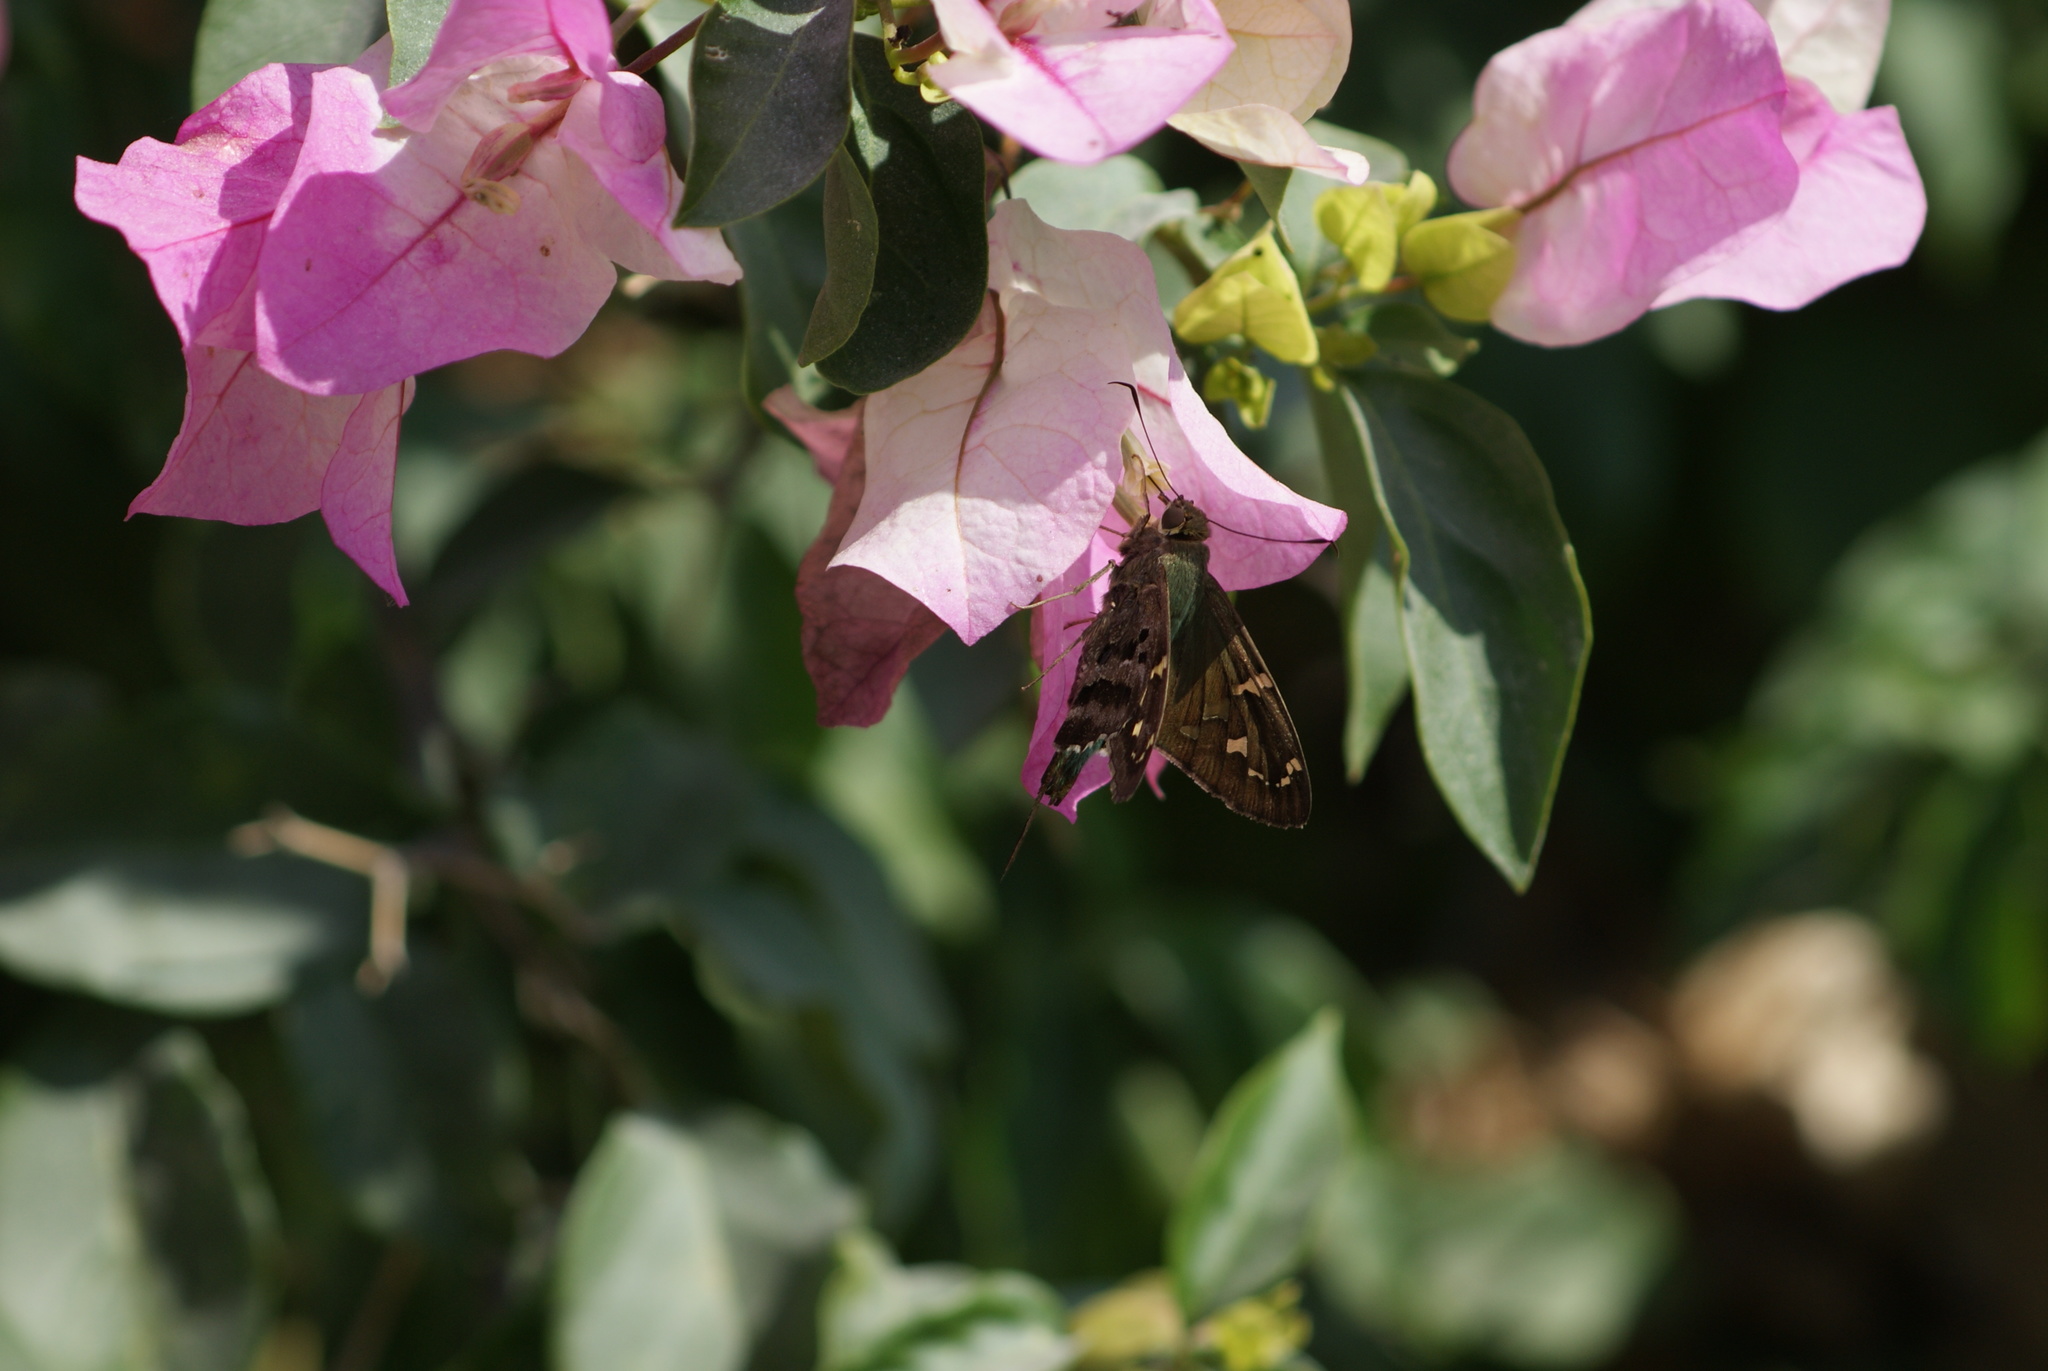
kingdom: Animalia
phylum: Arthropoda
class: Insecta
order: Lepidoptera
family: Hesperiidae
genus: Urbanus
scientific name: Urbanus proteus
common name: Long-tailed skipper
